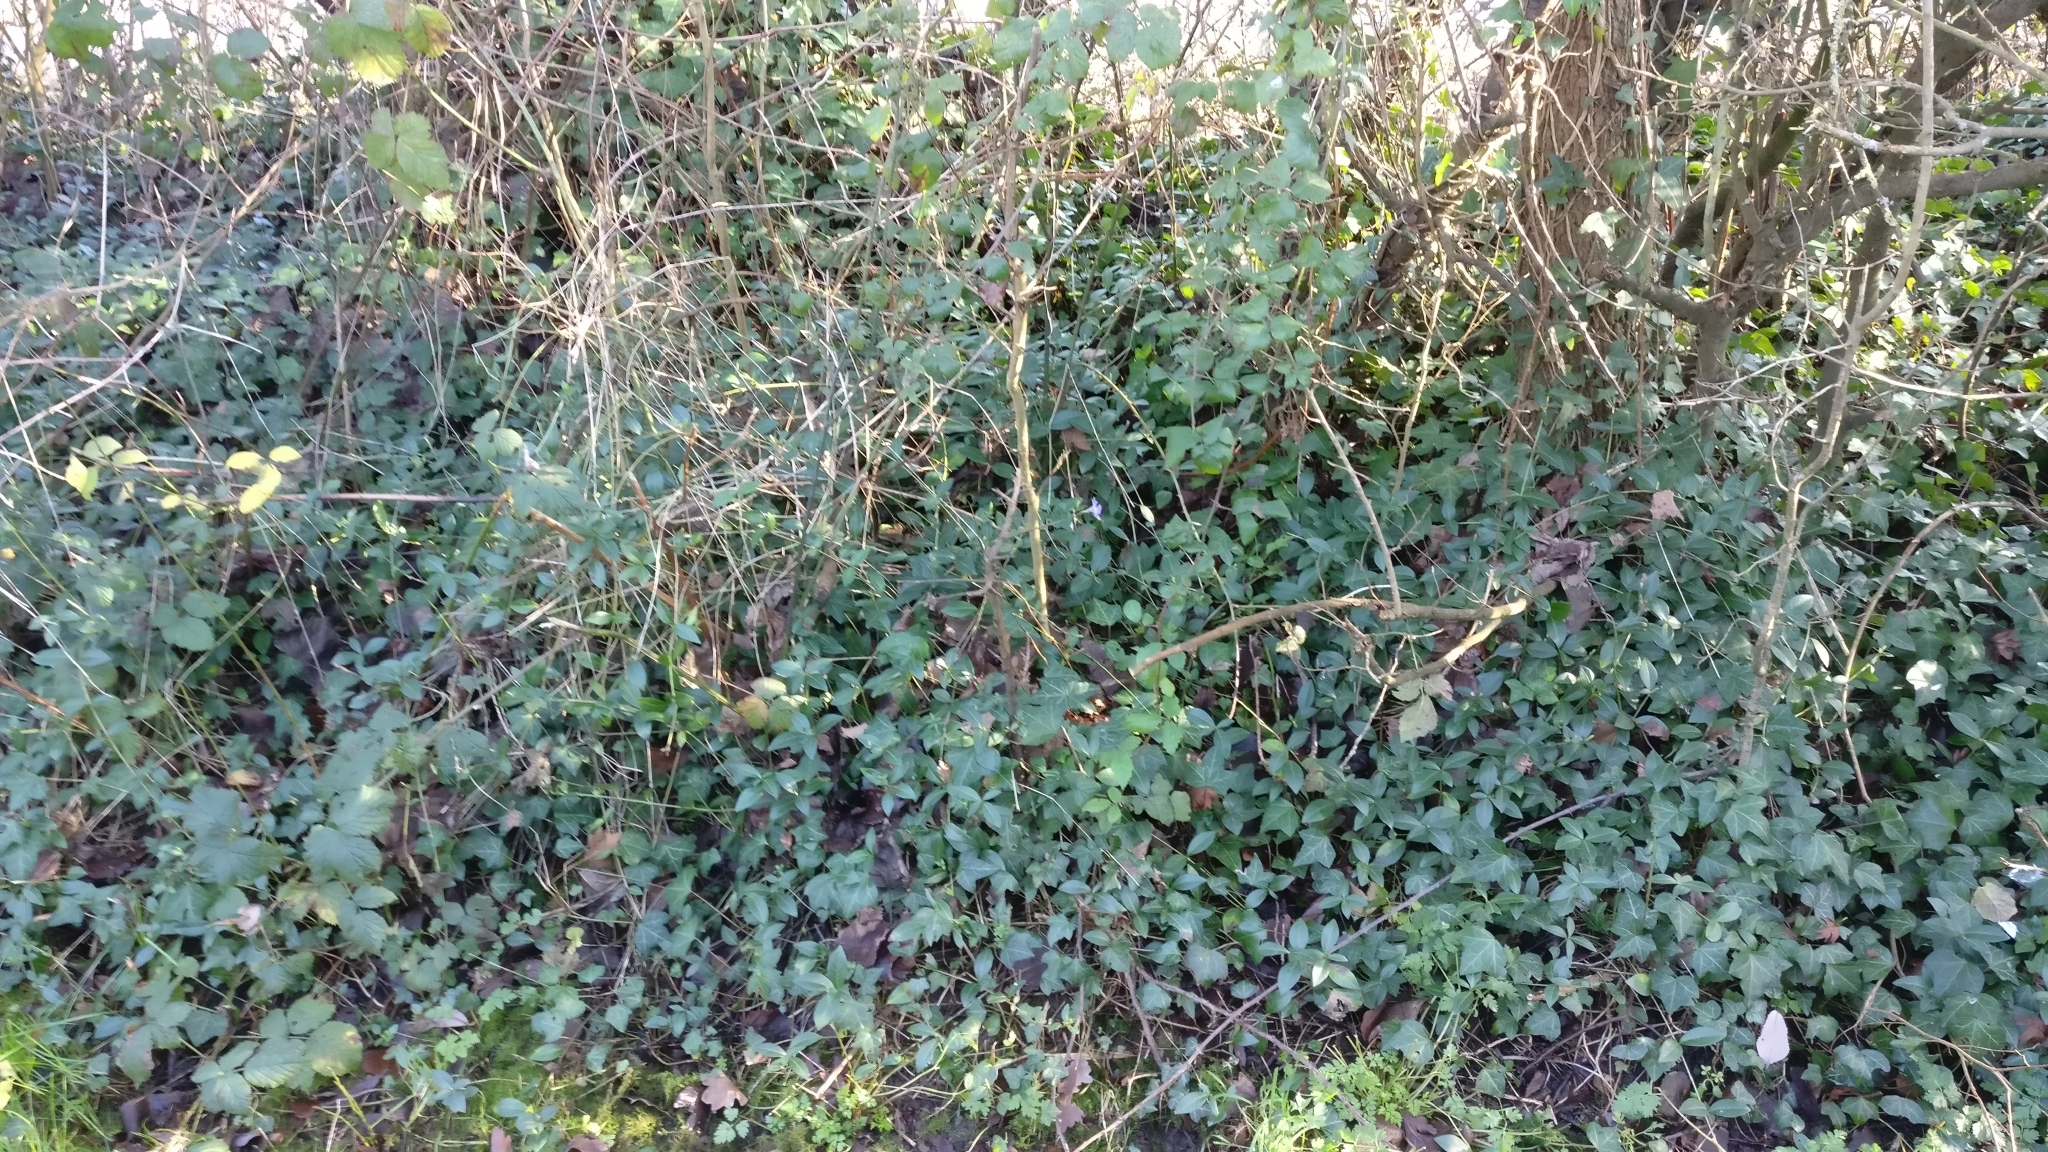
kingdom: Plantae
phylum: Tracheophyta
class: Magnoliopsida
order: Gentianales
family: Apocynaceae
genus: Vinca
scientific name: Vinca minor
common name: Lesser periwinkle
